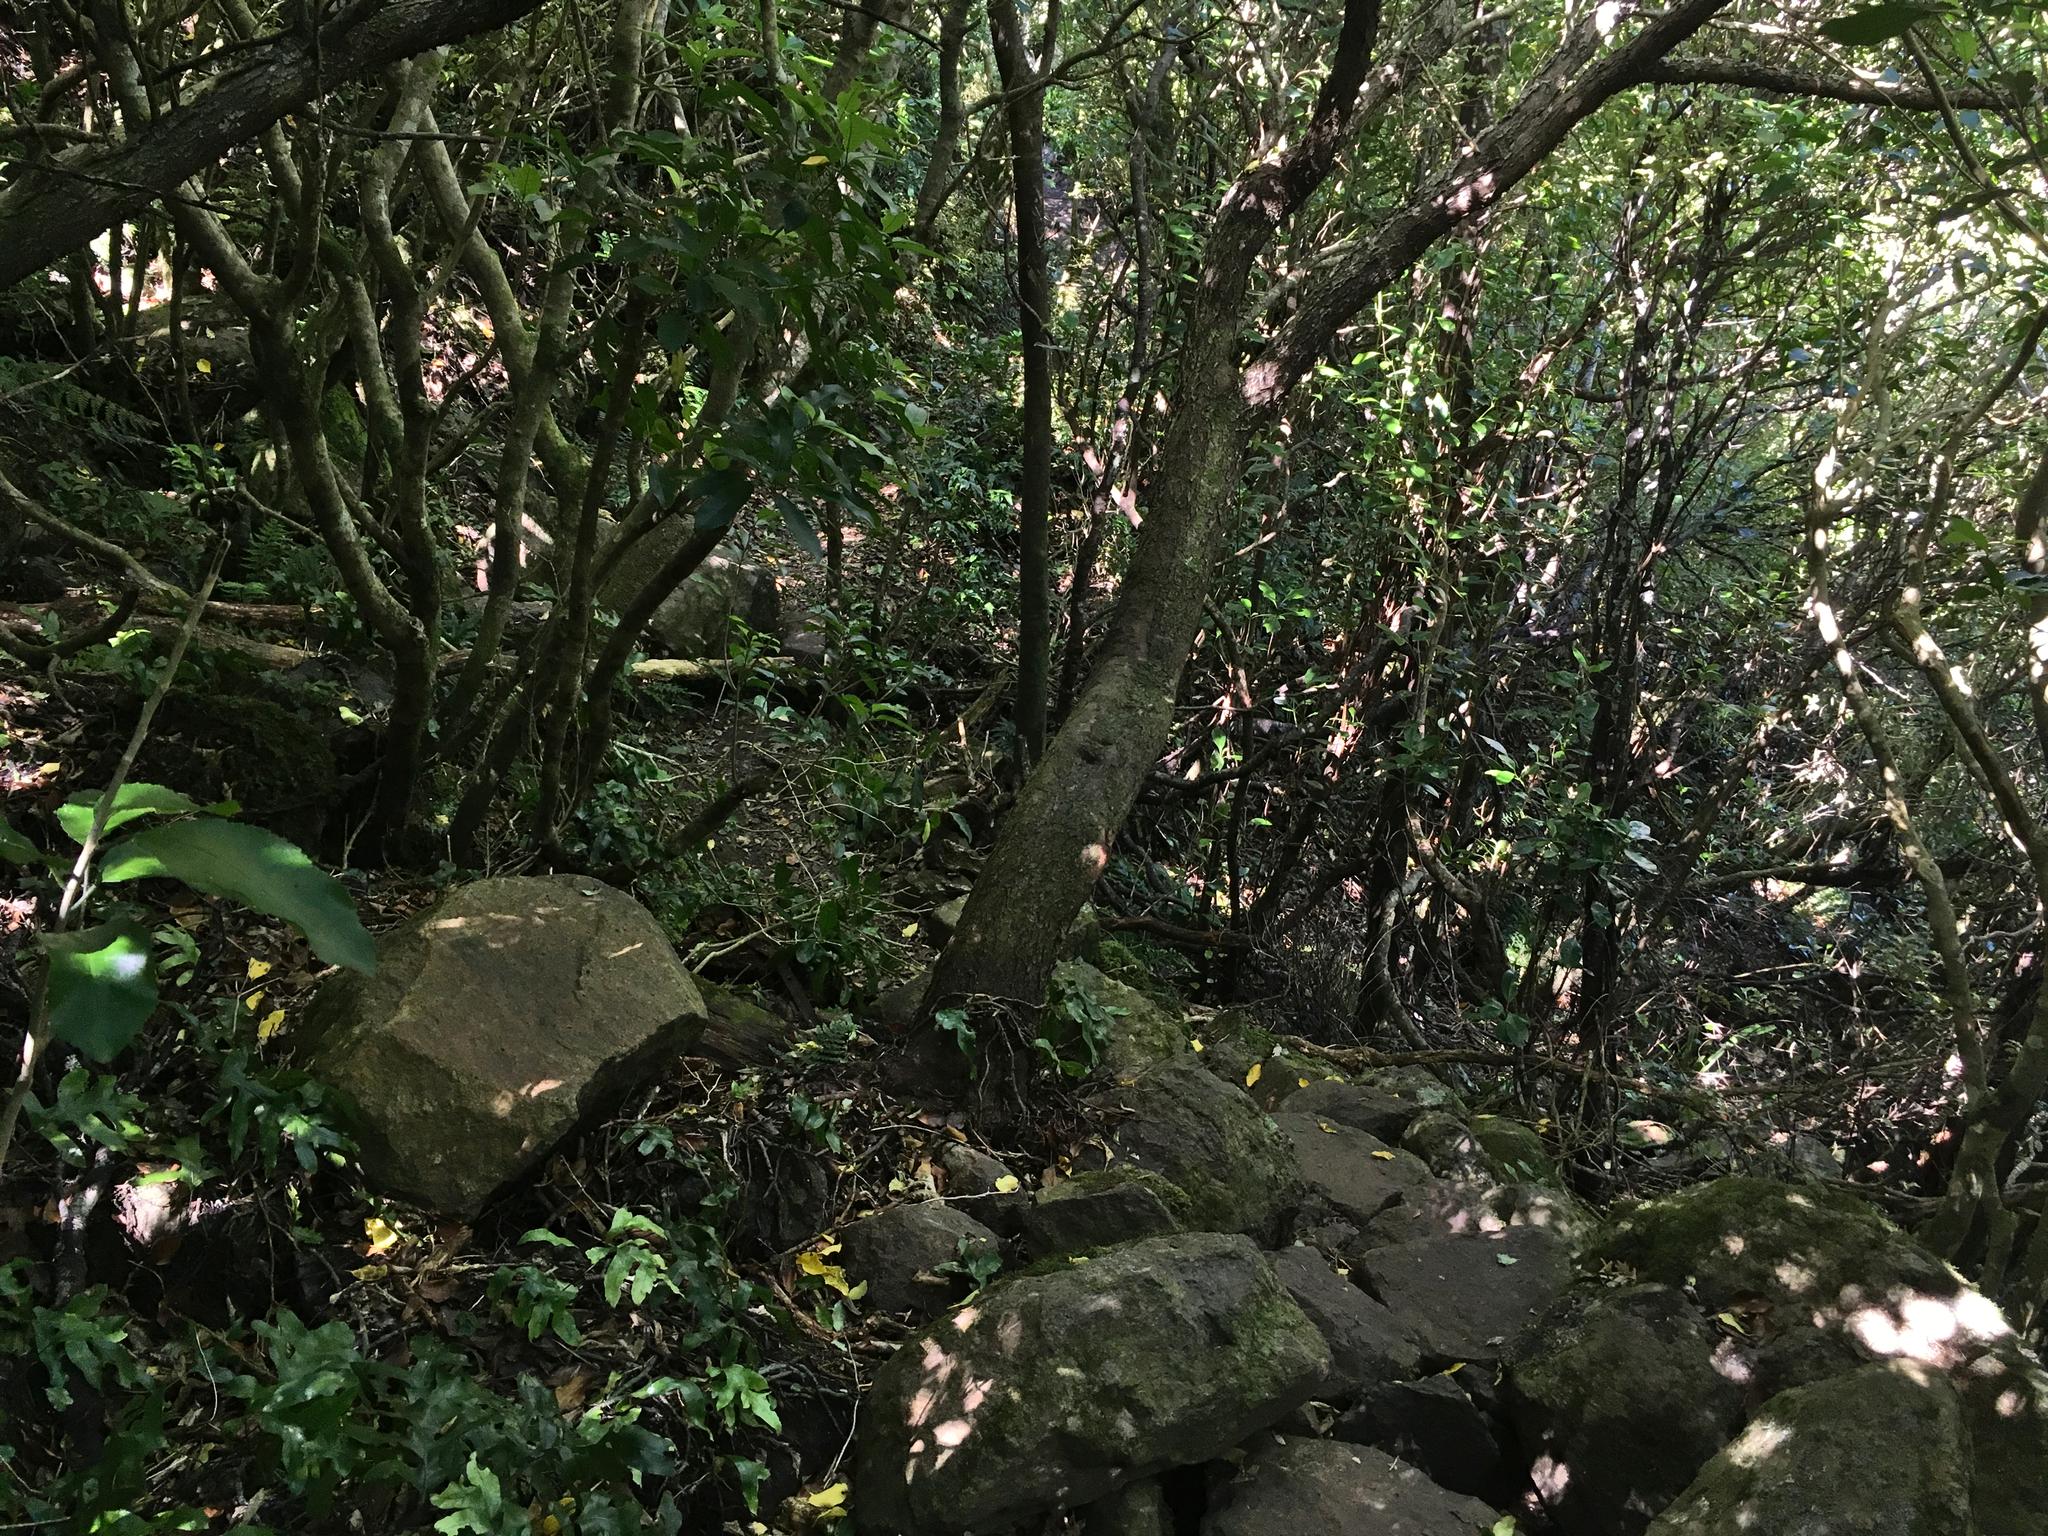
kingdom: Plantae
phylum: Tracheophyta
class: Magnoliopsida
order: Malpighiales
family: Violaceae
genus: Melicytus
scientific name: Melicytus ramiflorus
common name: Mahoe
